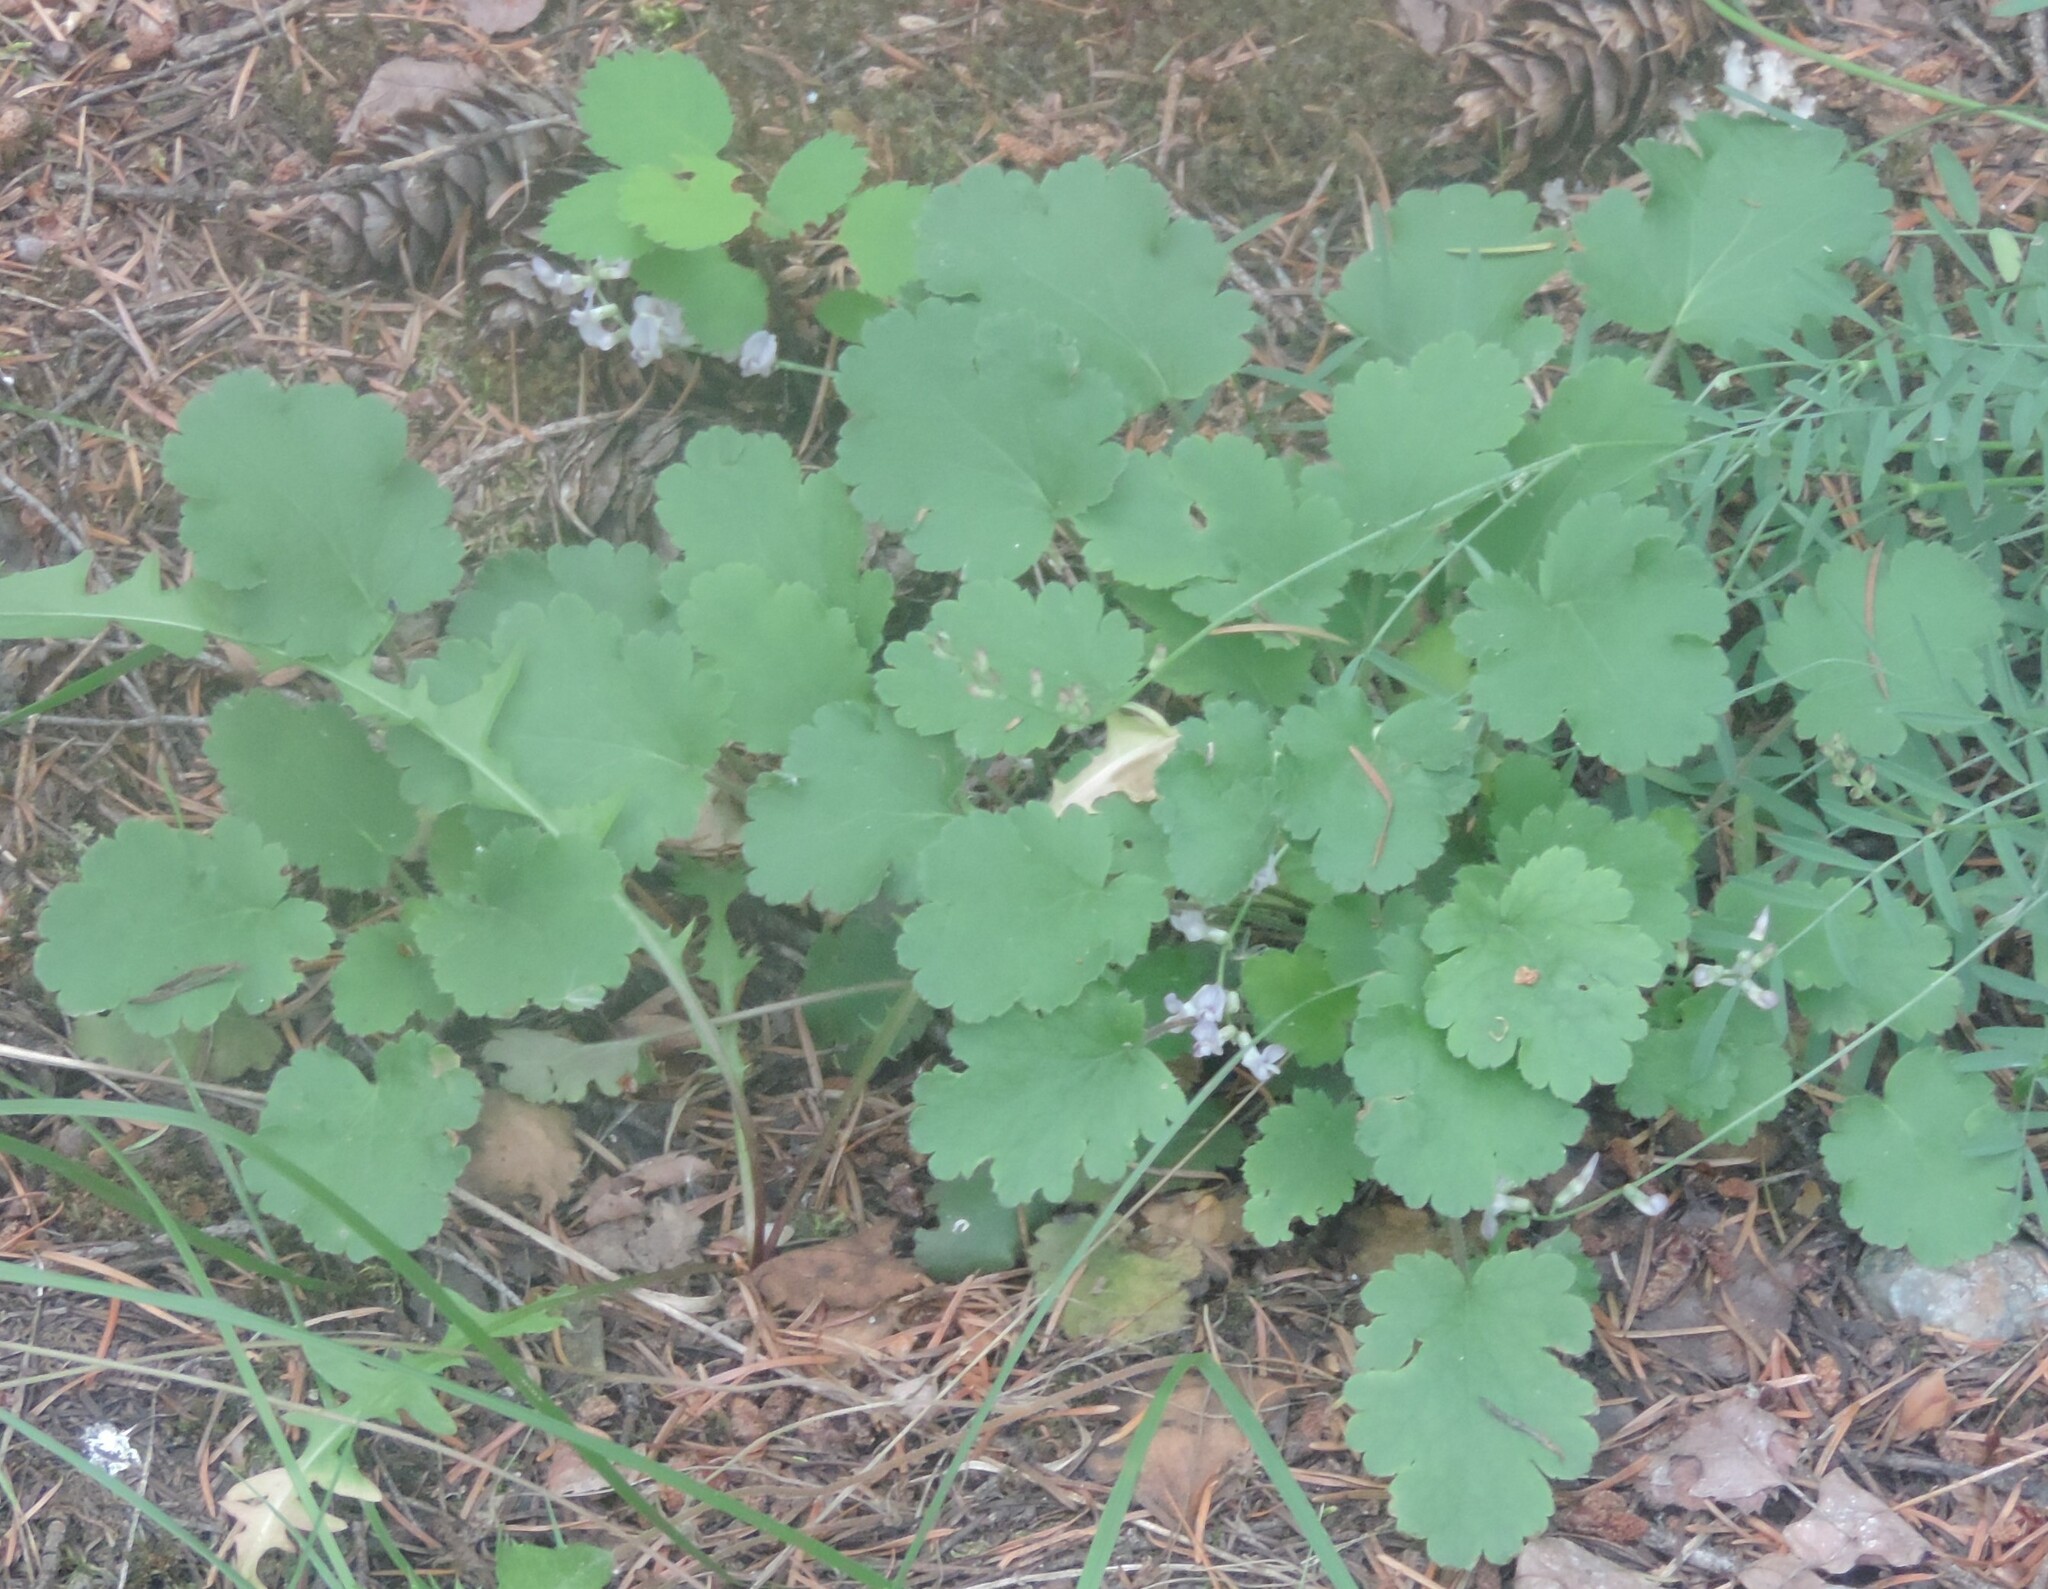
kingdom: Plantae
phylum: Tracheophyta
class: Magnoliopsida
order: Saxifragales
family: Saxifragaceae
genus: Heuchera
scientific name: Heuchera cylindrica
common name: Mat alumroot
